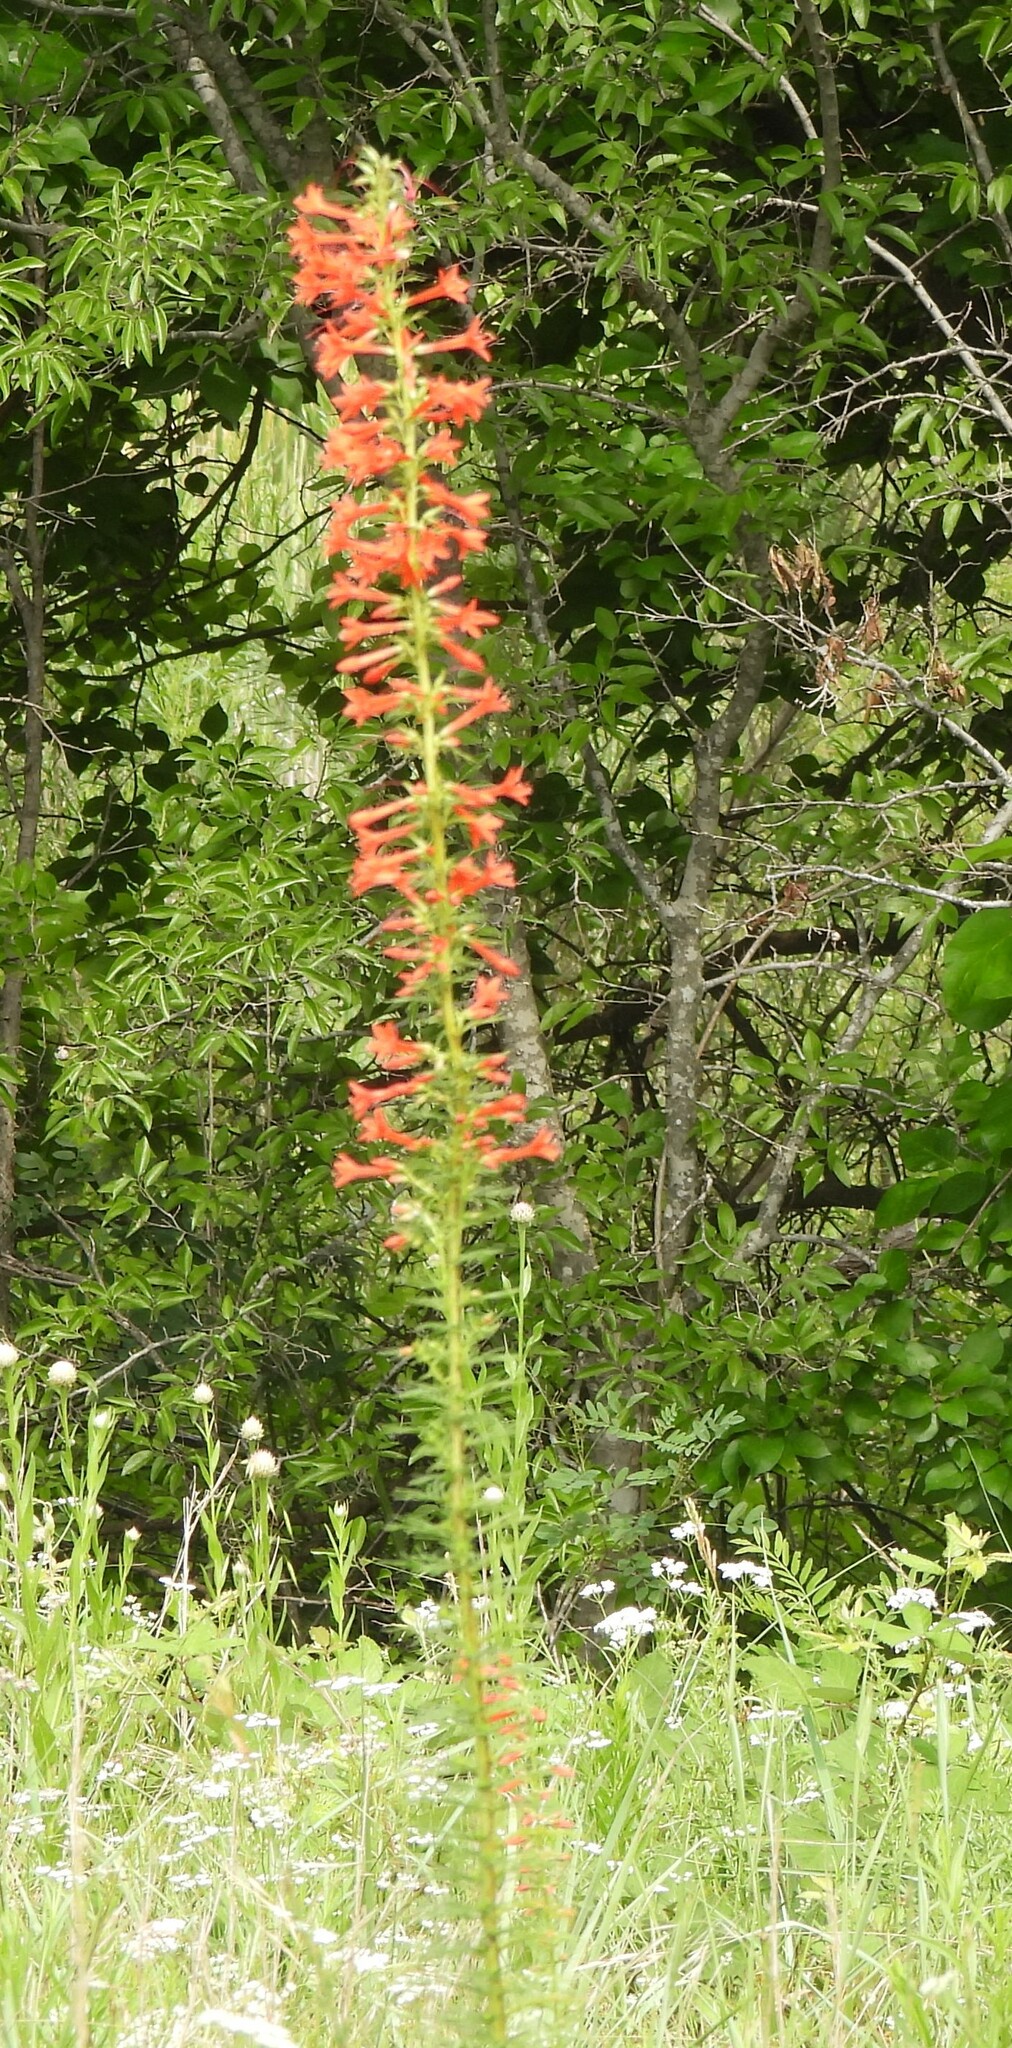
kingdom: Plantae
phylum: Tracheophyta
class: Magnoliopsida
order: Ericales
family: Polemoniaceae
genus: Ipomopsis
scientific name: Ipomopsis rubra
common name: Skyrocket
